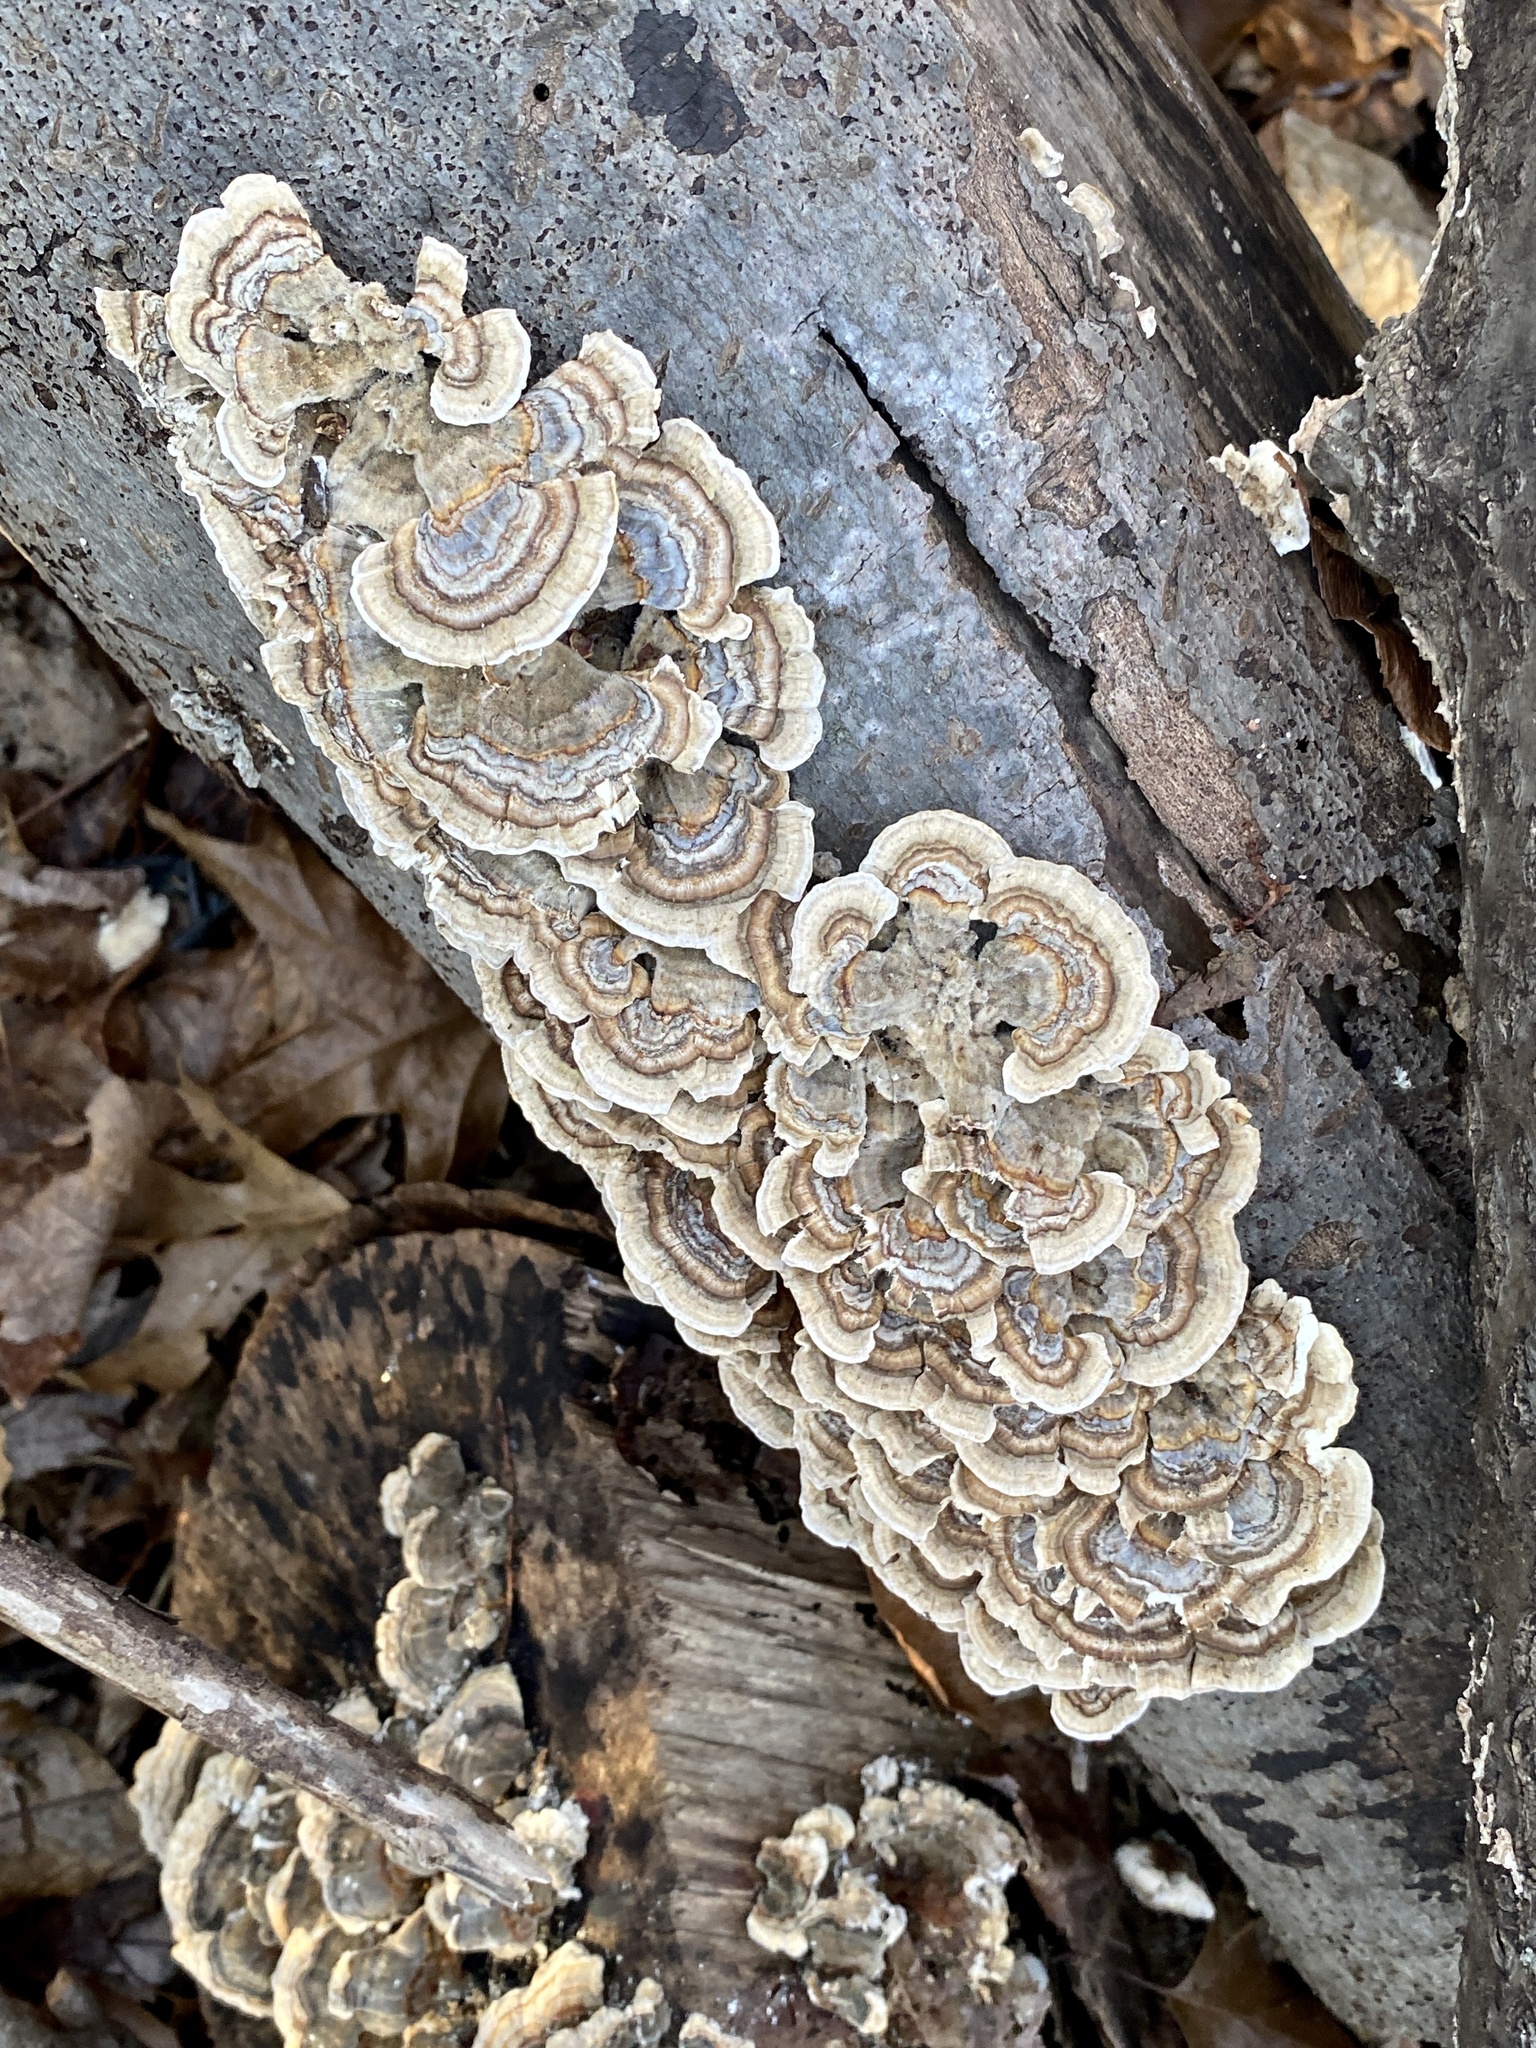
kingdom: Fungi
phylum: Basidiomycota
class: Agaricomycetes
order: Polyporales
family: Polyporaceae
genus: Trametes
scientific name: Trametes versicolor
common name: Turkeytail
